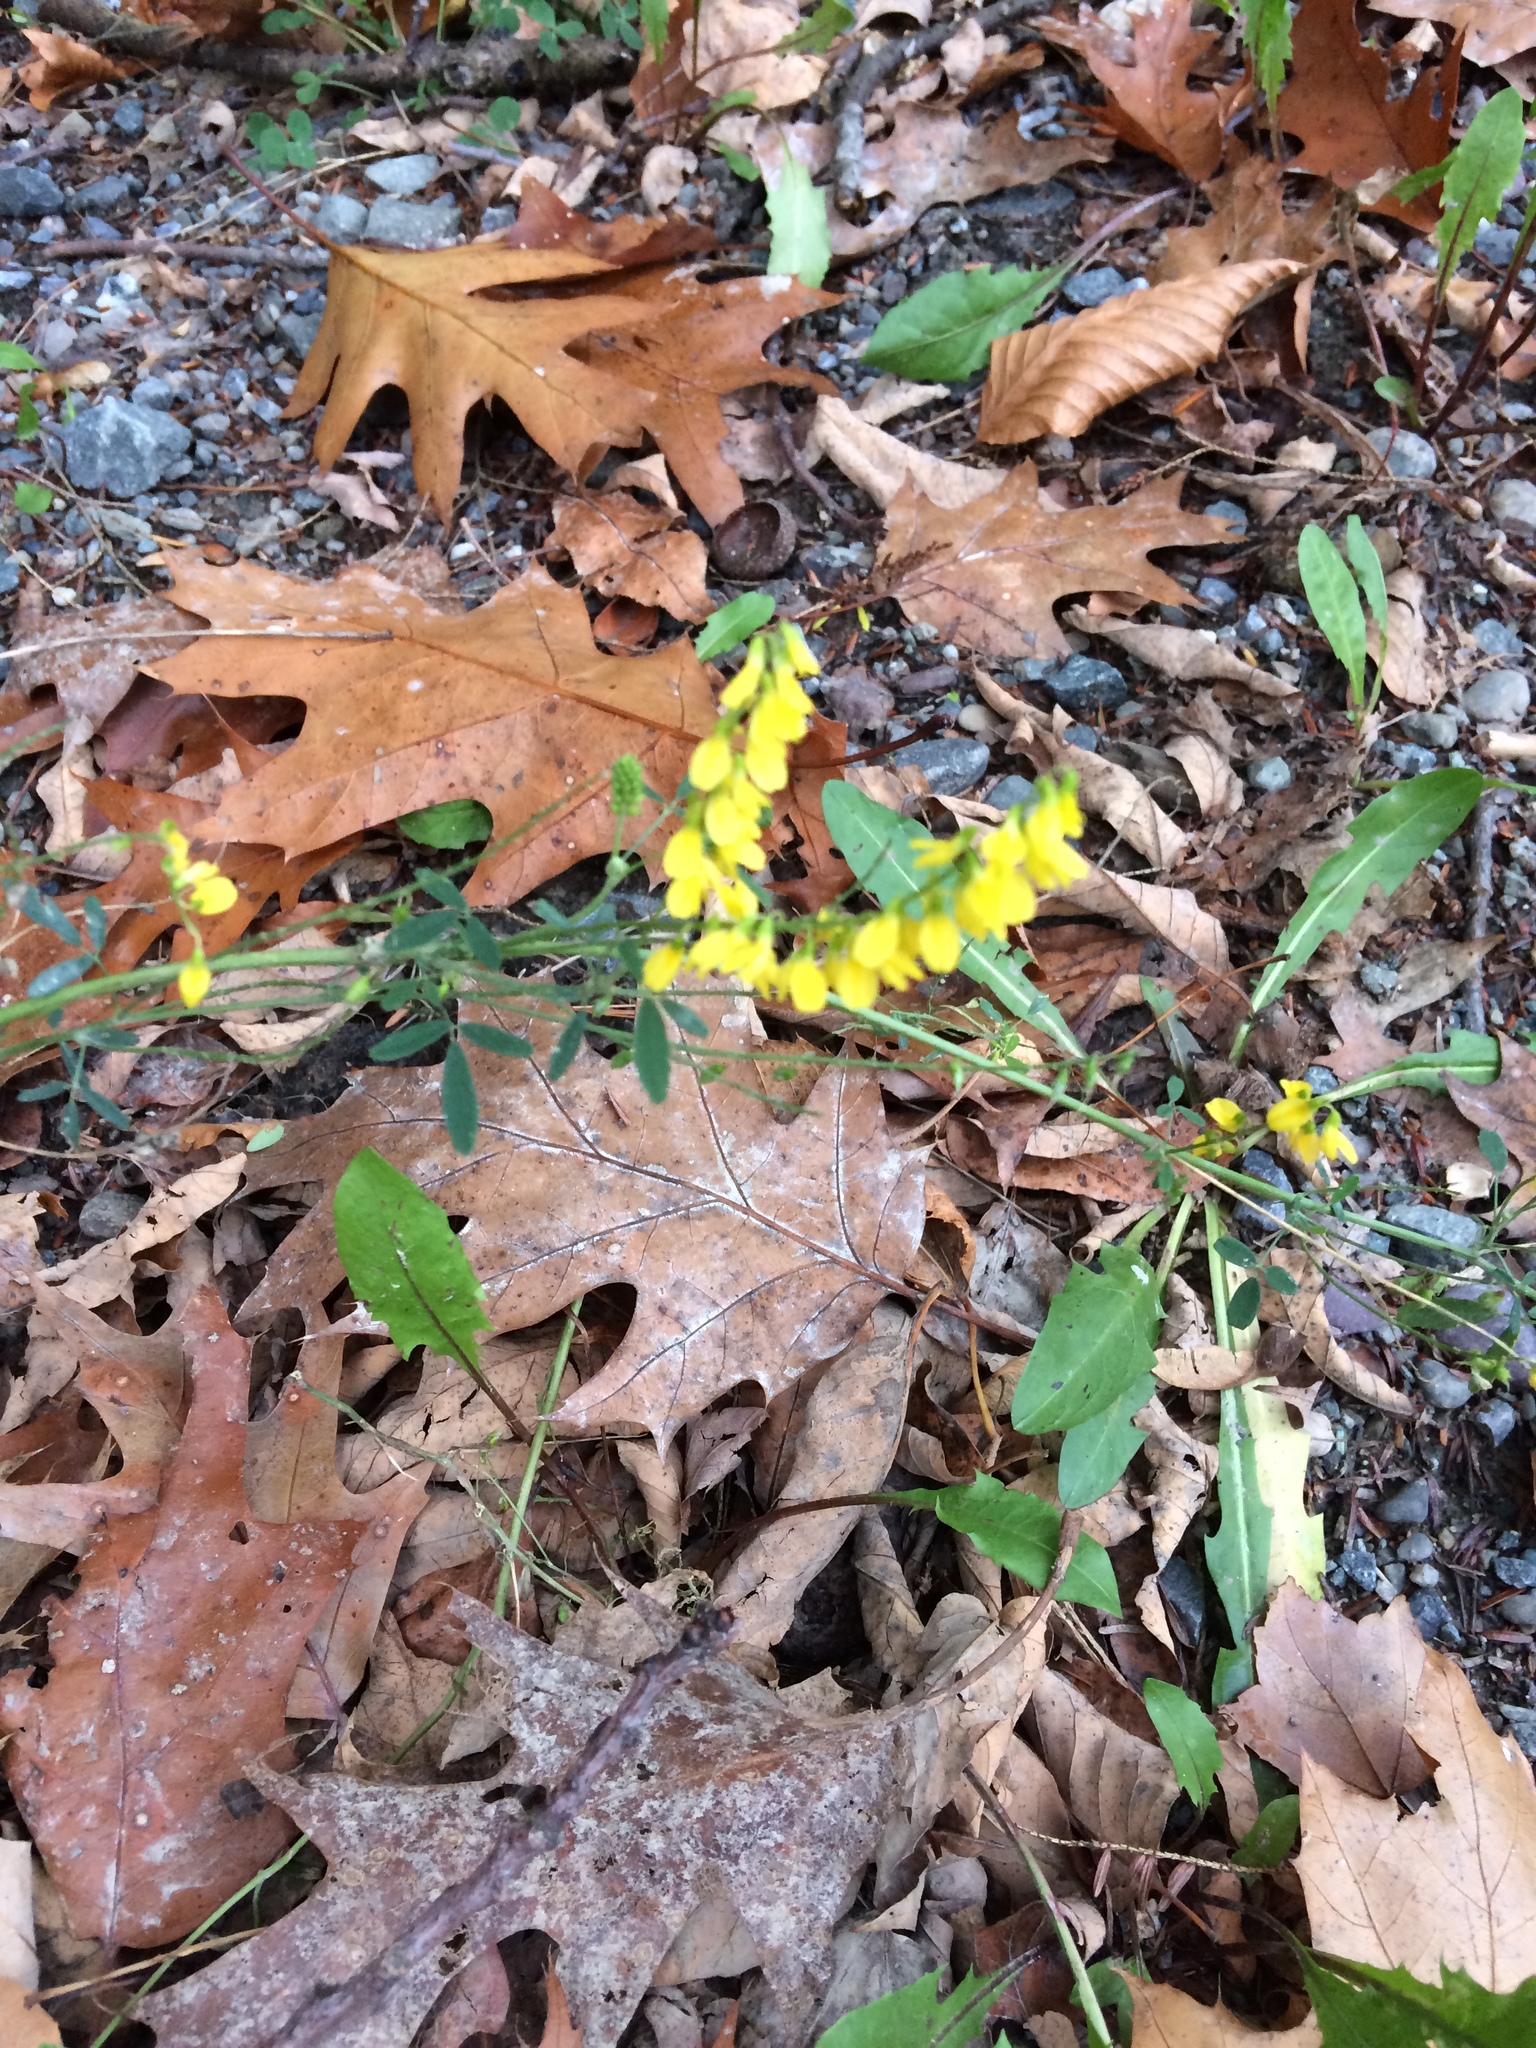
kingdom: Plantae
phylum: Tracheophyta
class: Magnoliopsida
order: Fabales
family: Fabaceae
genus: Melilotus
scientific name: Melilotus officinalis
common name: Sweetclover
